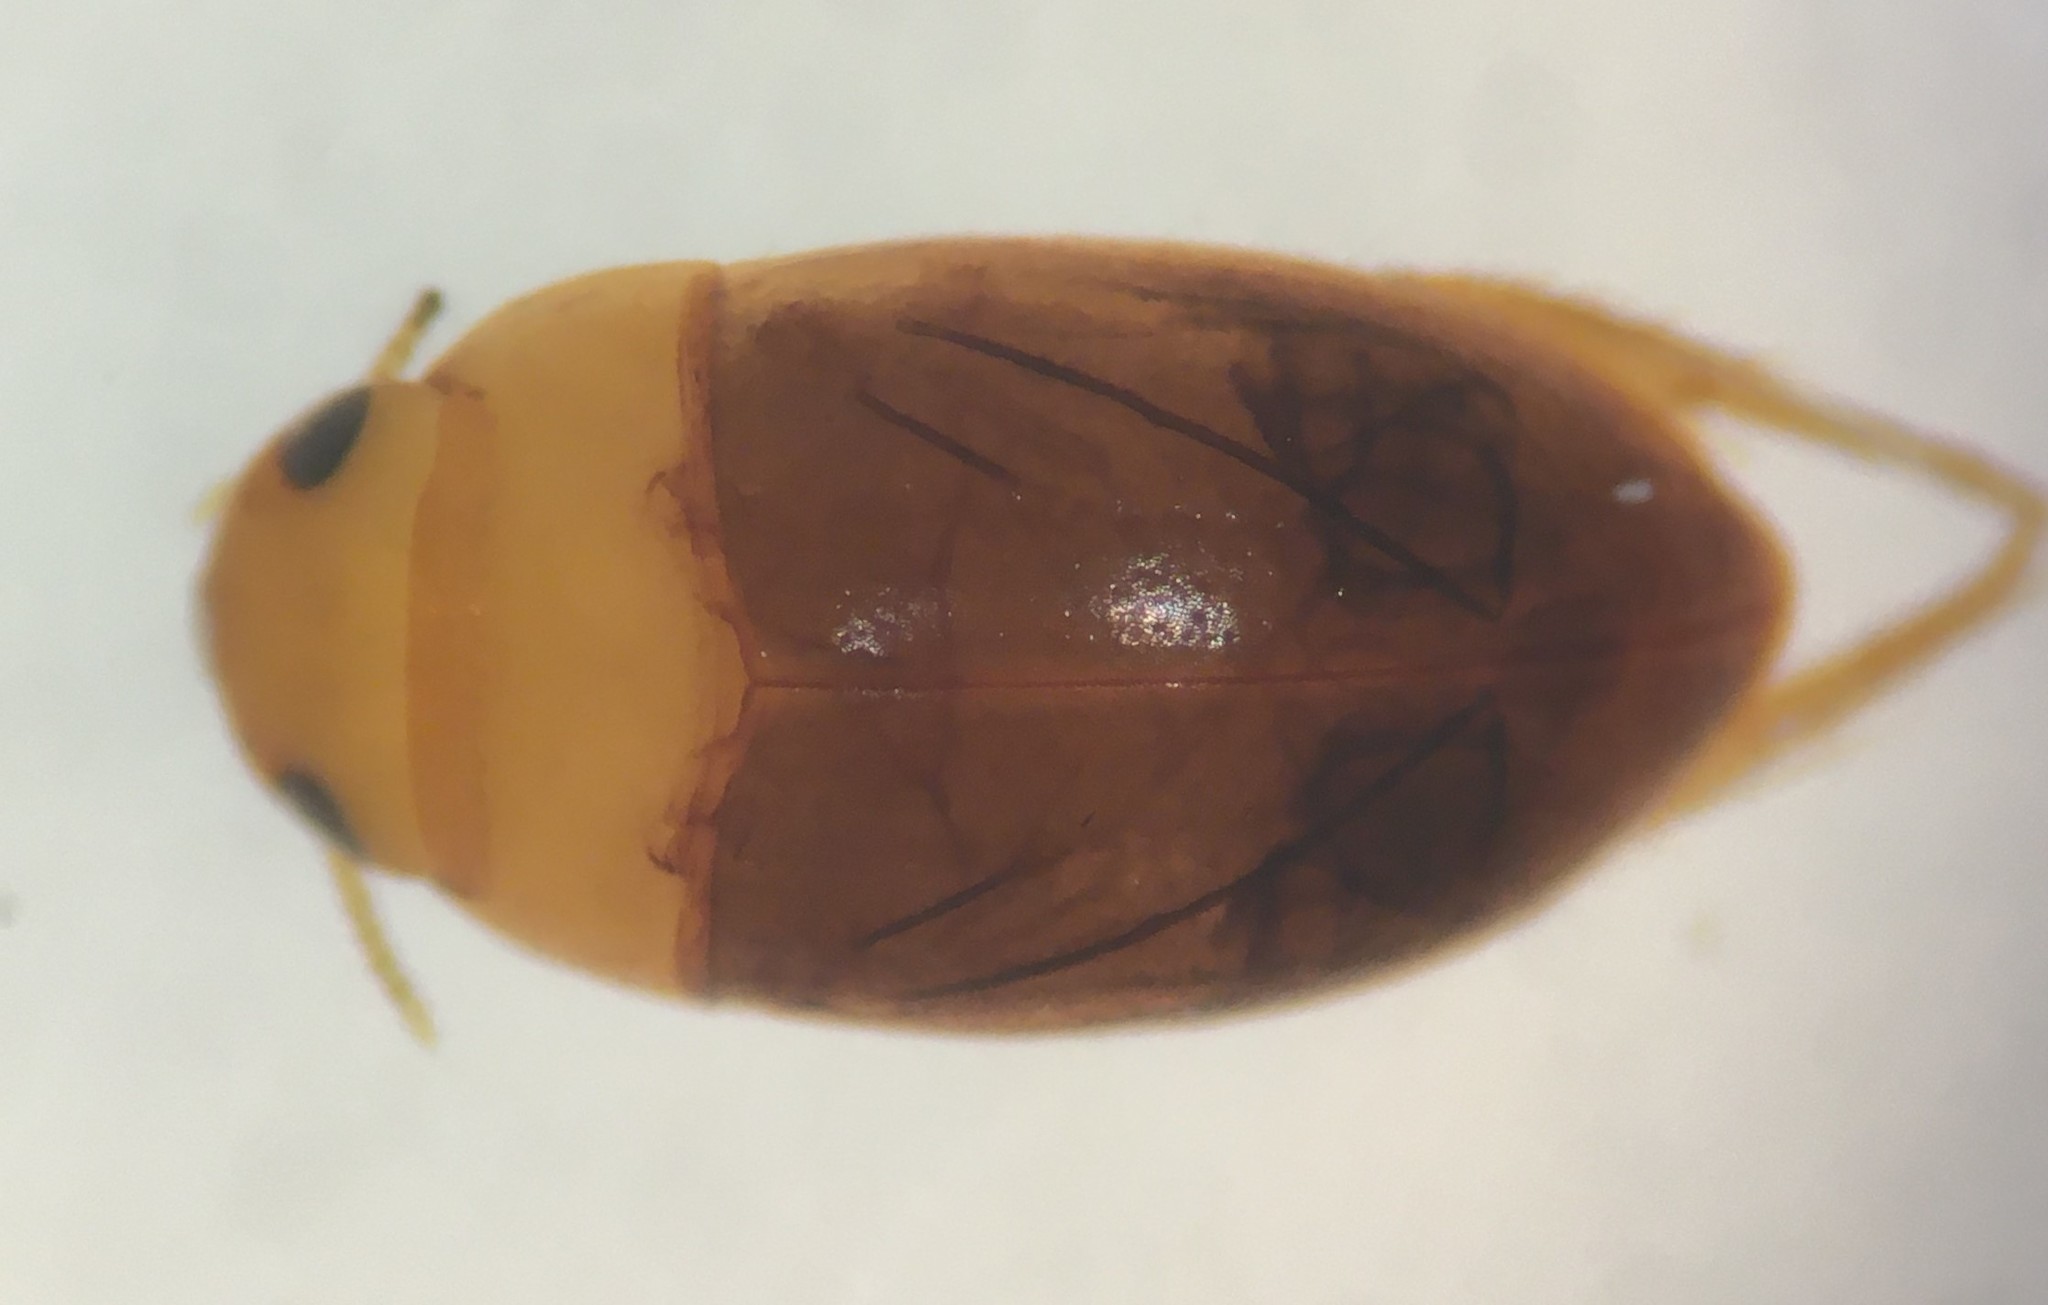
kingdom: Animalia
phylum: Arthropoda
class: Insecta
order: Coleoptera
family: Noteridae
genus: Suphisellus
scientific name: Suphisellus
